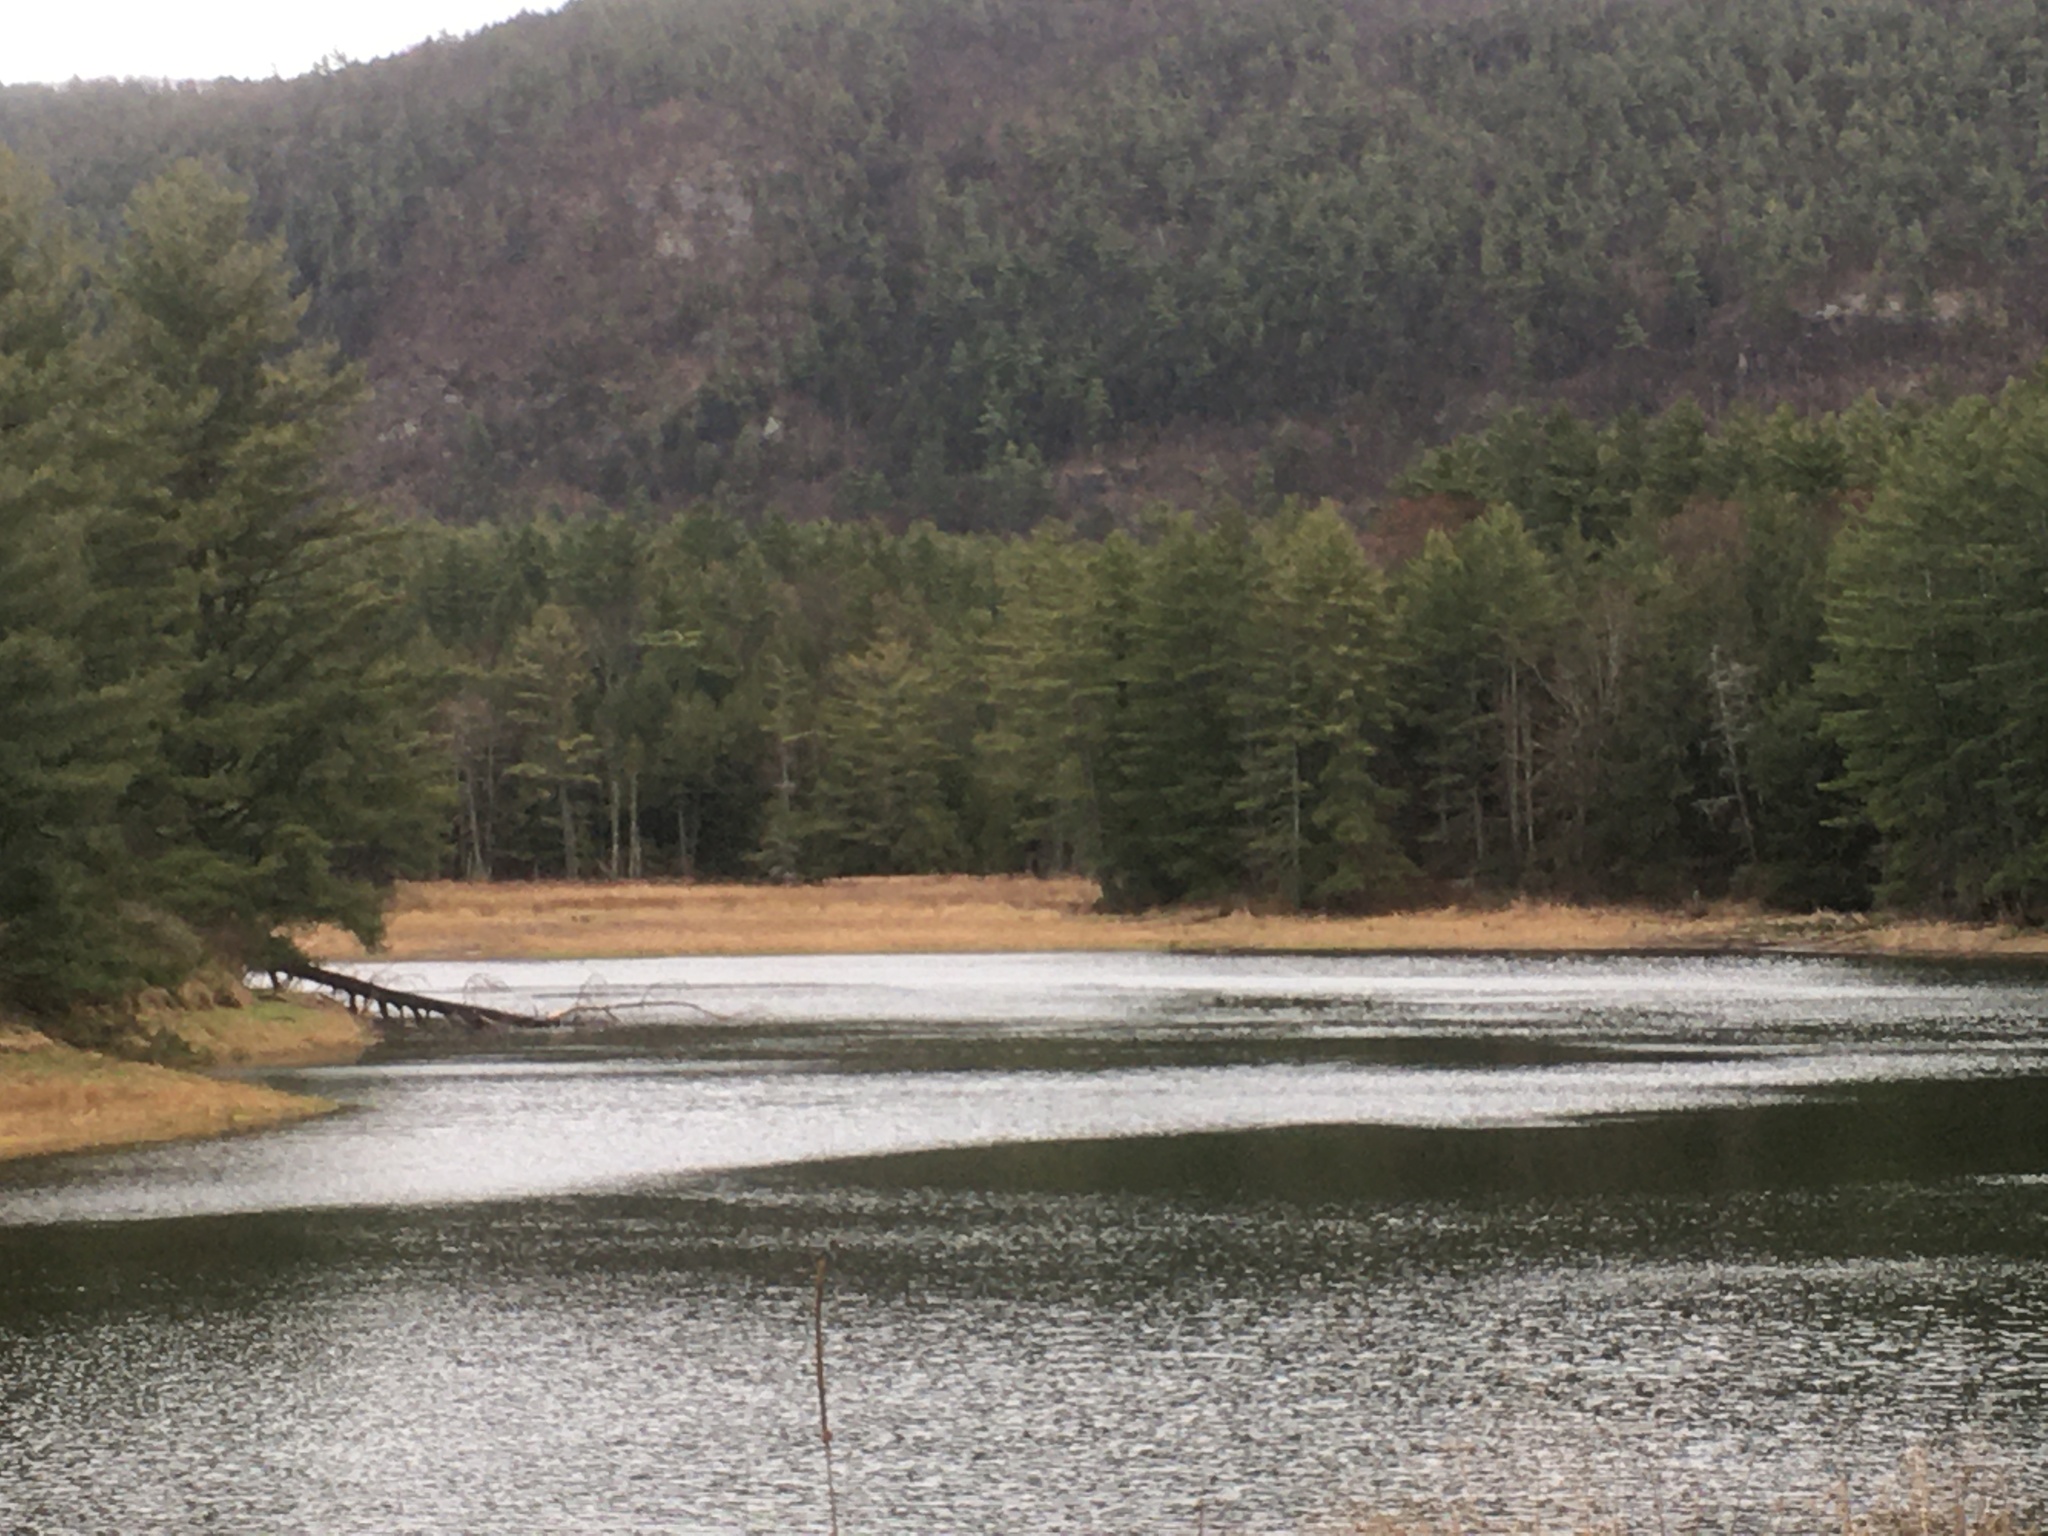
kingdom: Plantae
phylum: Tracheophyta
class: Pinopsida
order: Pinales
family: Pinaceae
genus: Pinus
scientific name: Pinus strobus
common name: Weymouth pine
